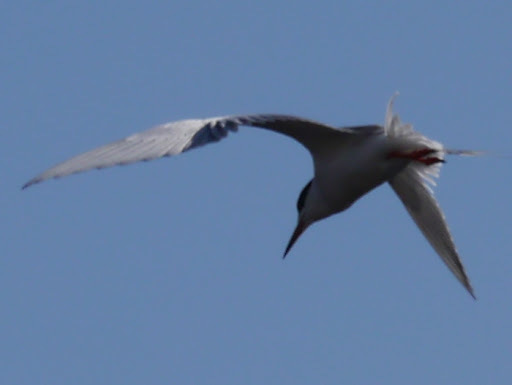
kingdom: Animalia
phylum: Chordata
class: Aves
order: Charadriiformes
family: Laridae
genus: Sterna
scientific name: Sterna forsteri
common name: Forster's tern
